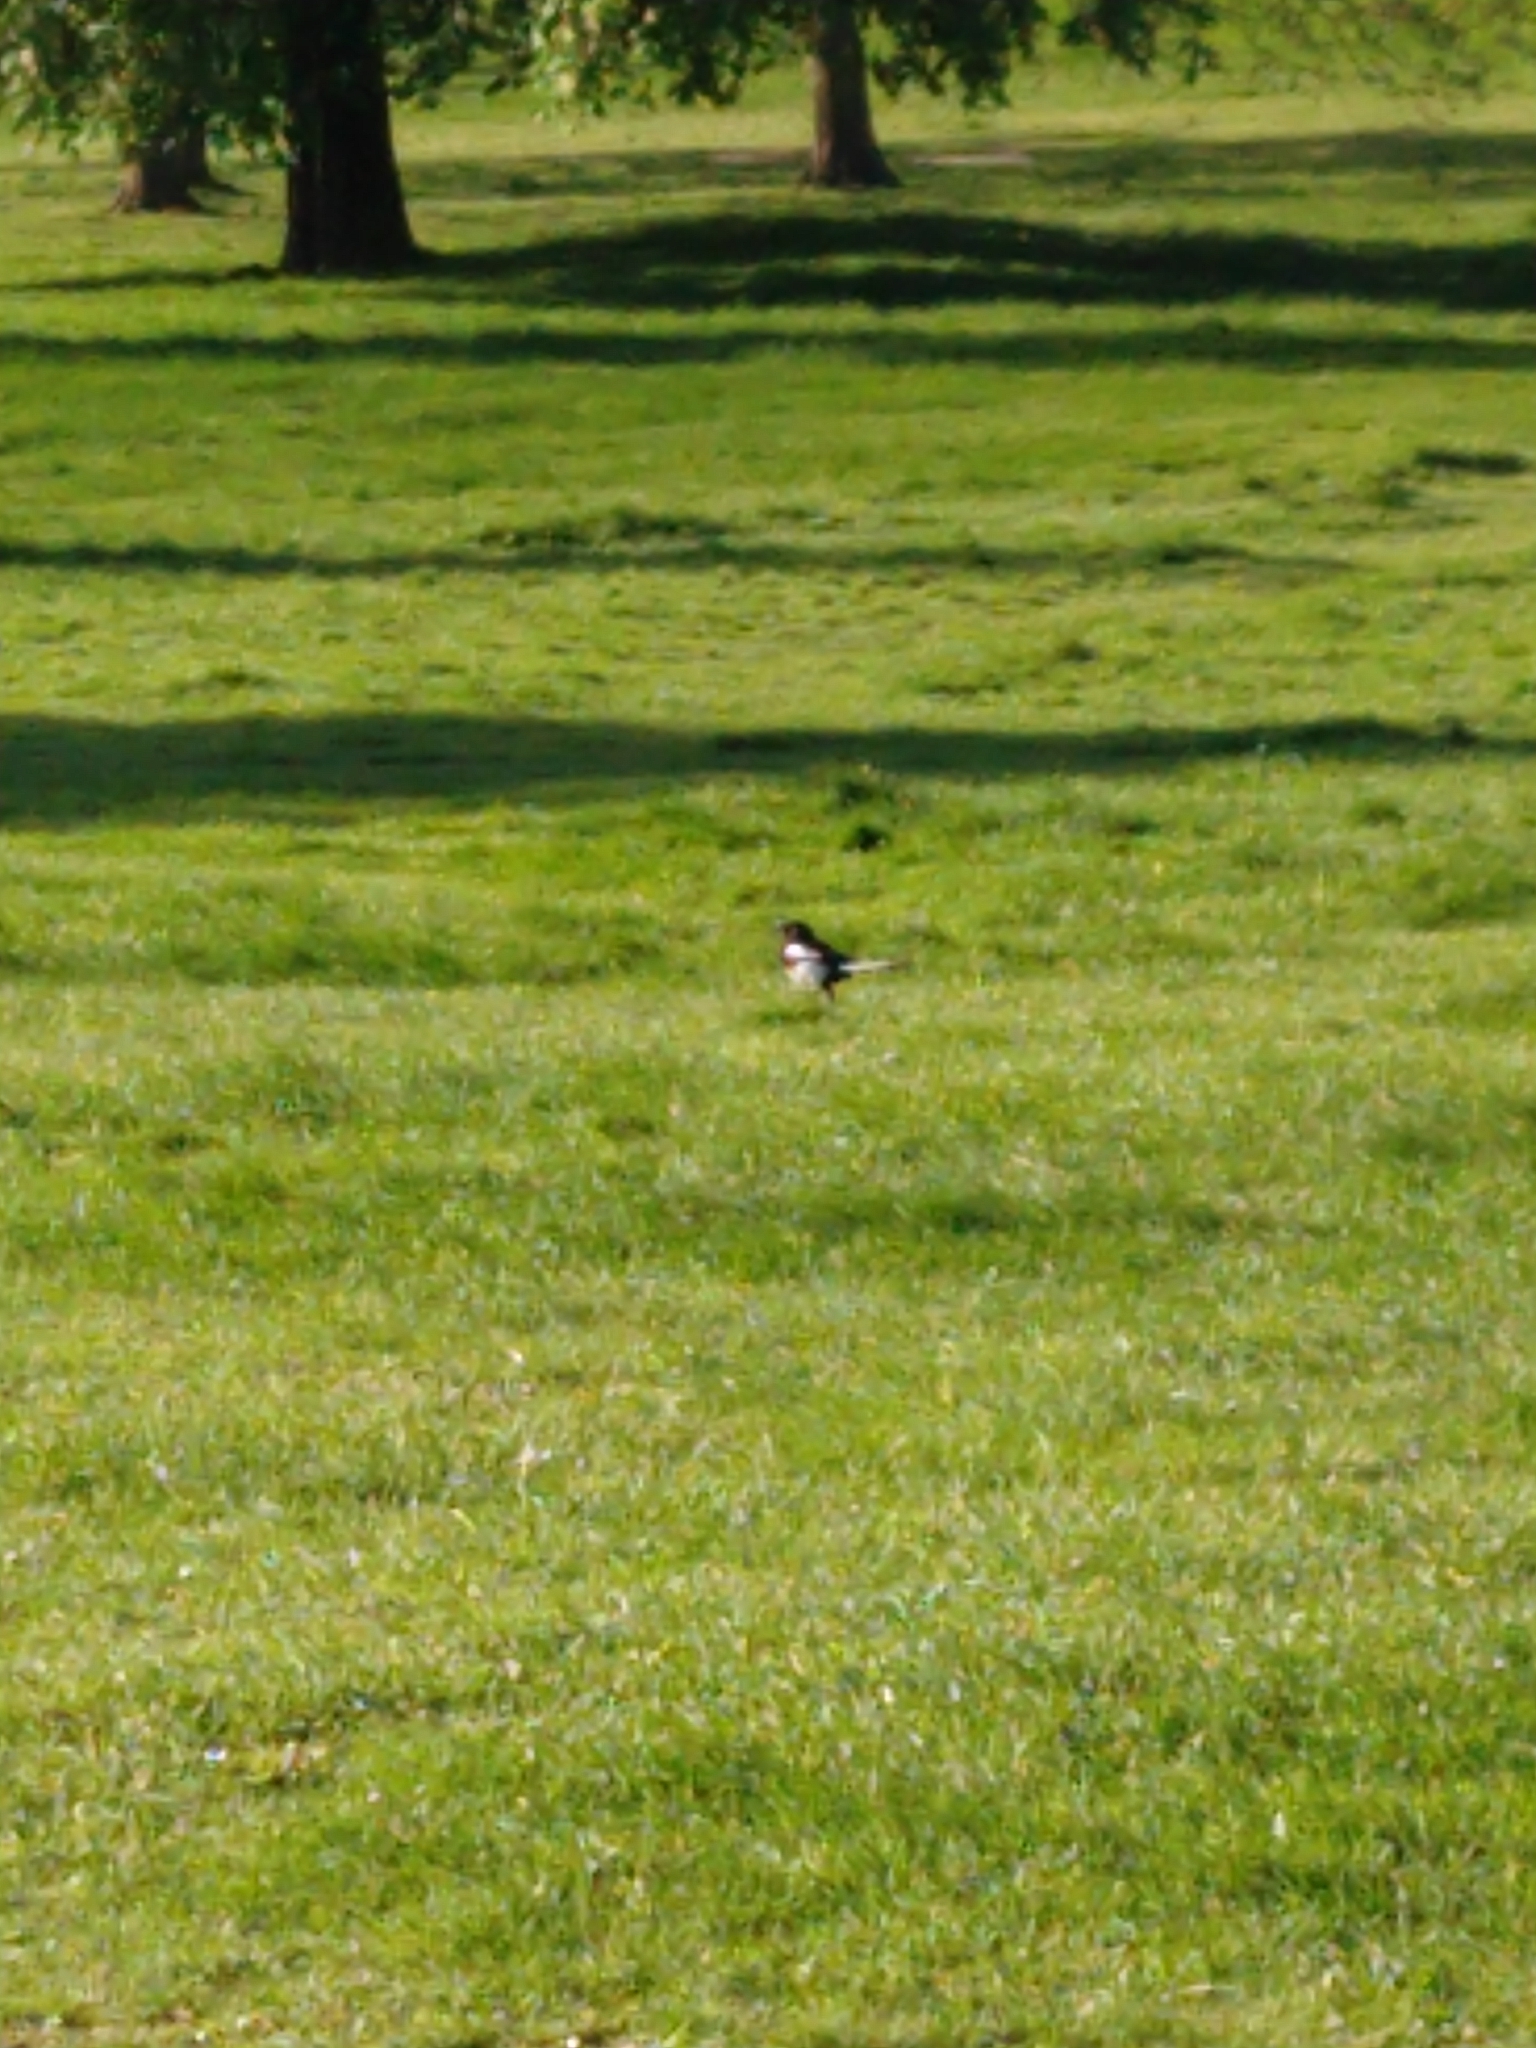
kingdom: Animalia
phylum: Chordata
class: Aves
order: Passeriformes
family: Corvidae
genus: Pica
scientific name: Pica pica
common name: Eurasian magpie
